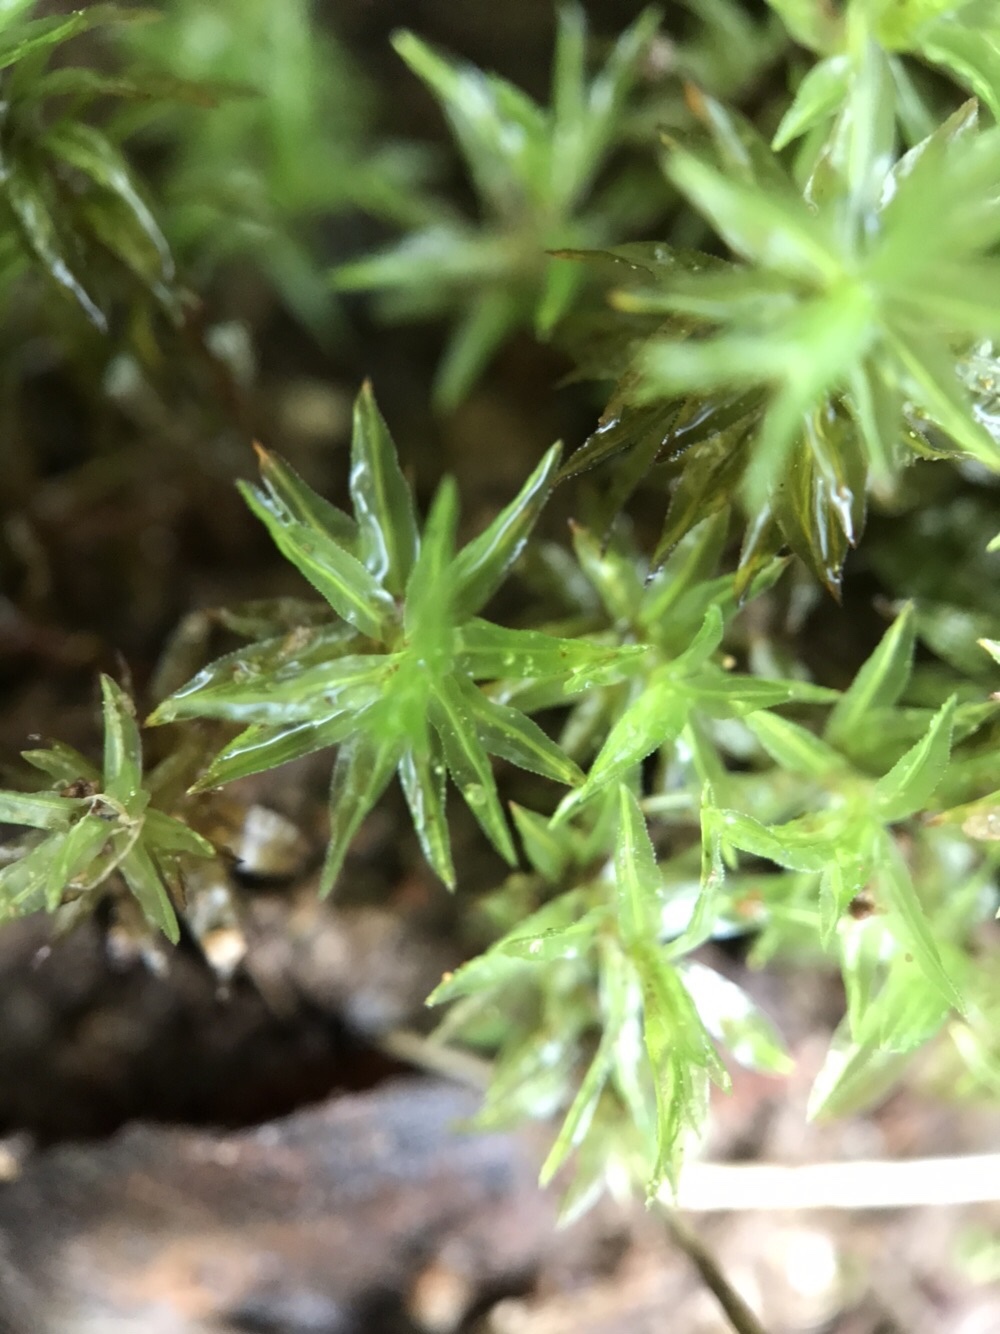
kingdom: Plantae
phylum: Bryophyta
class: Polytrichopsida
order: Polytrichales
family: Polytrichaceae
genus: Atrichum
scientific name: Atrichum undulatum
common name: Common smoothcap
